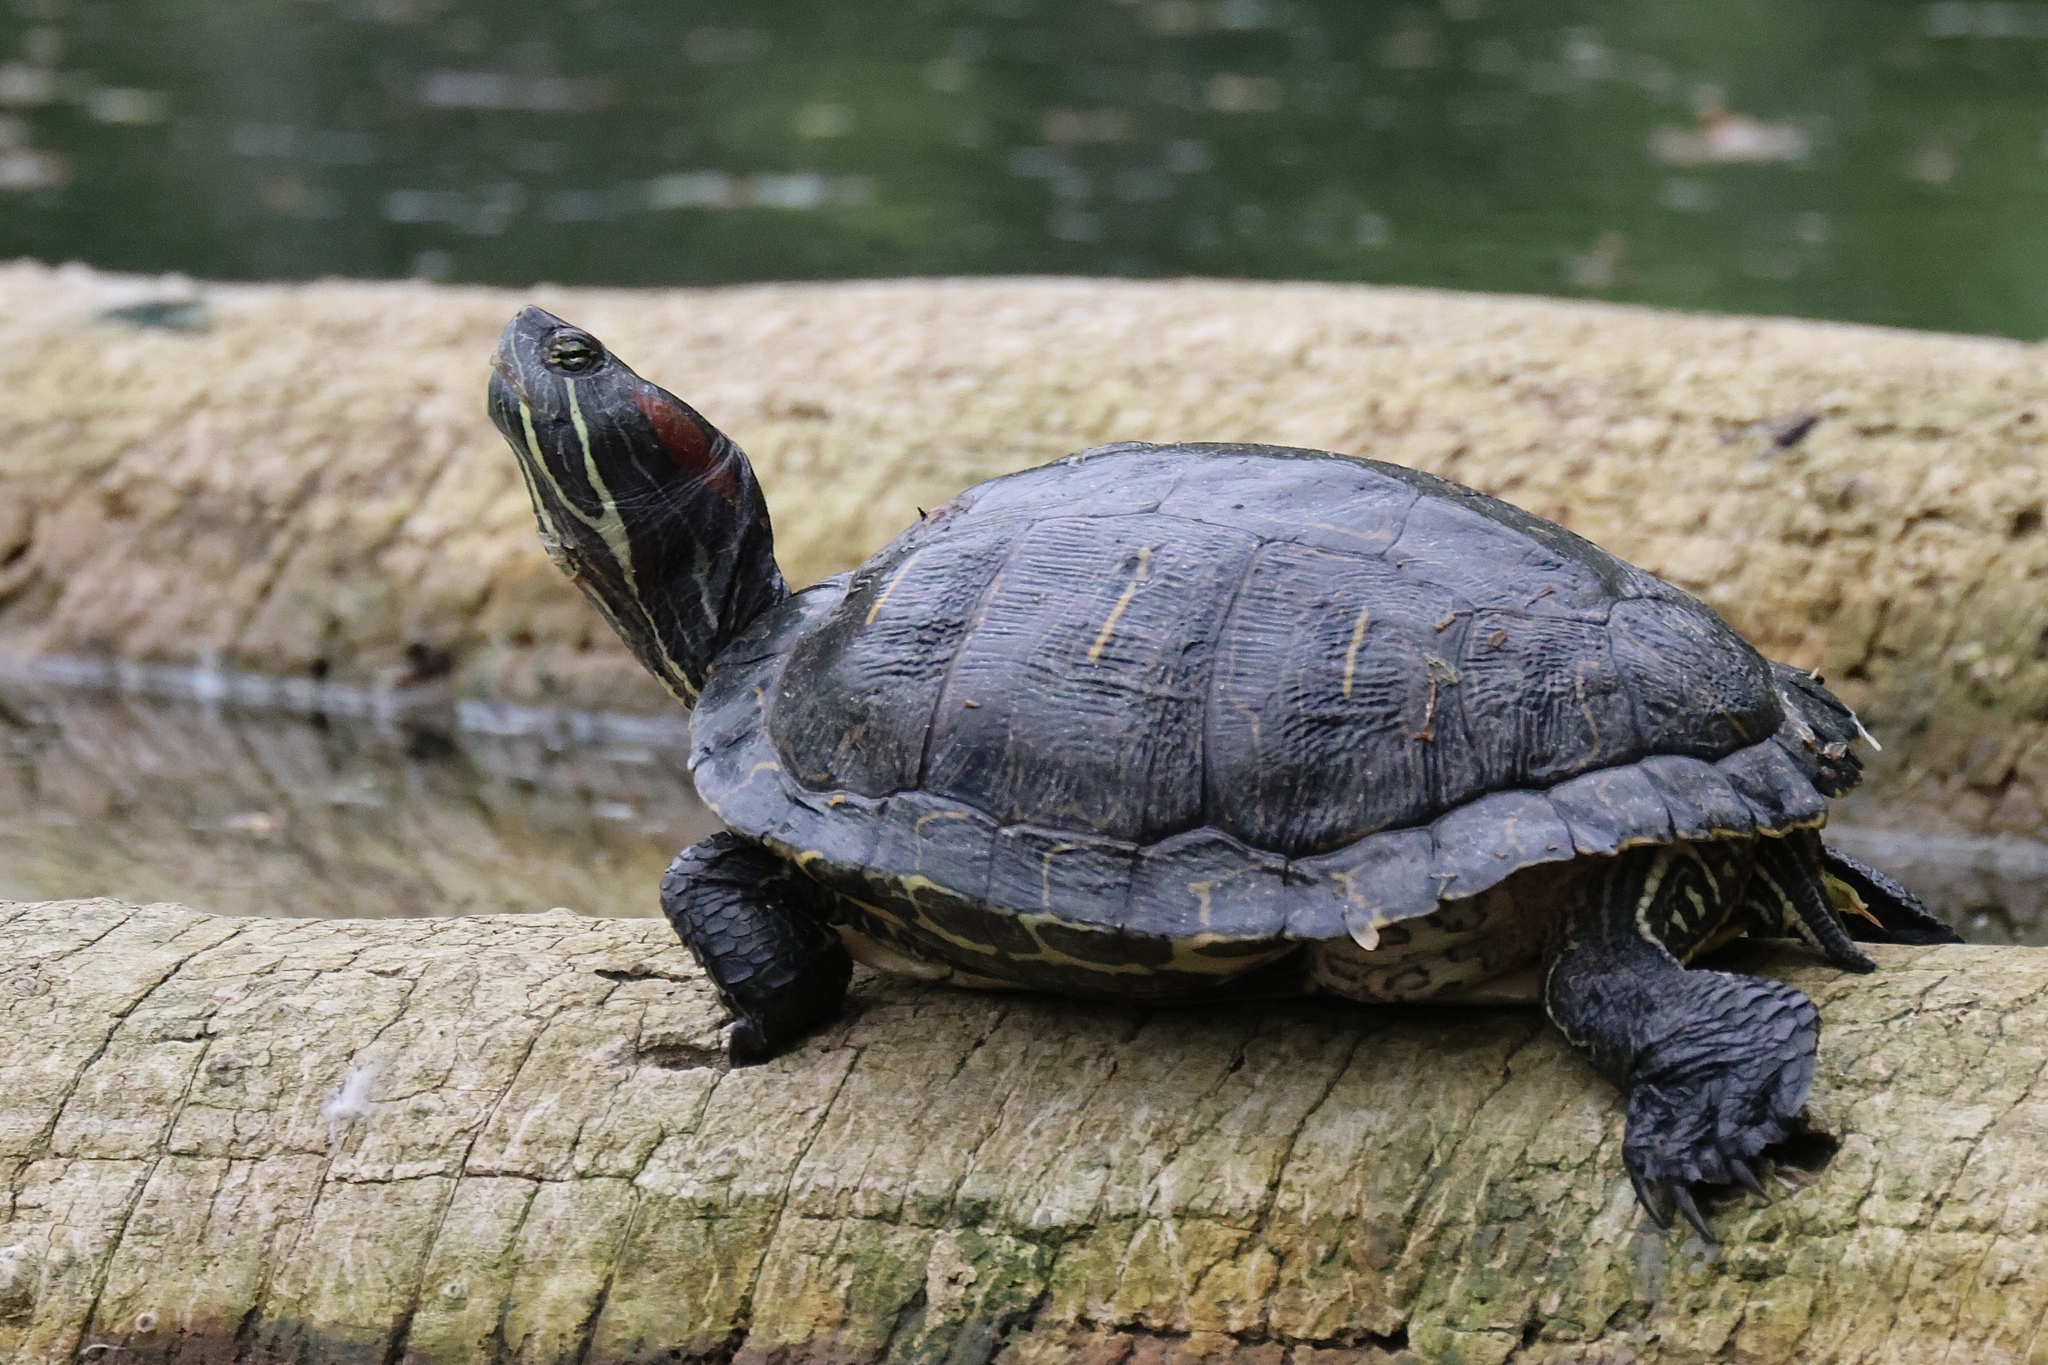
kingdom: Animalia
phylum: Chordata
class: Testudines
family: Emydidae
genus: Trachemys
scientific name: Trachemys scripta
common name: Slider
